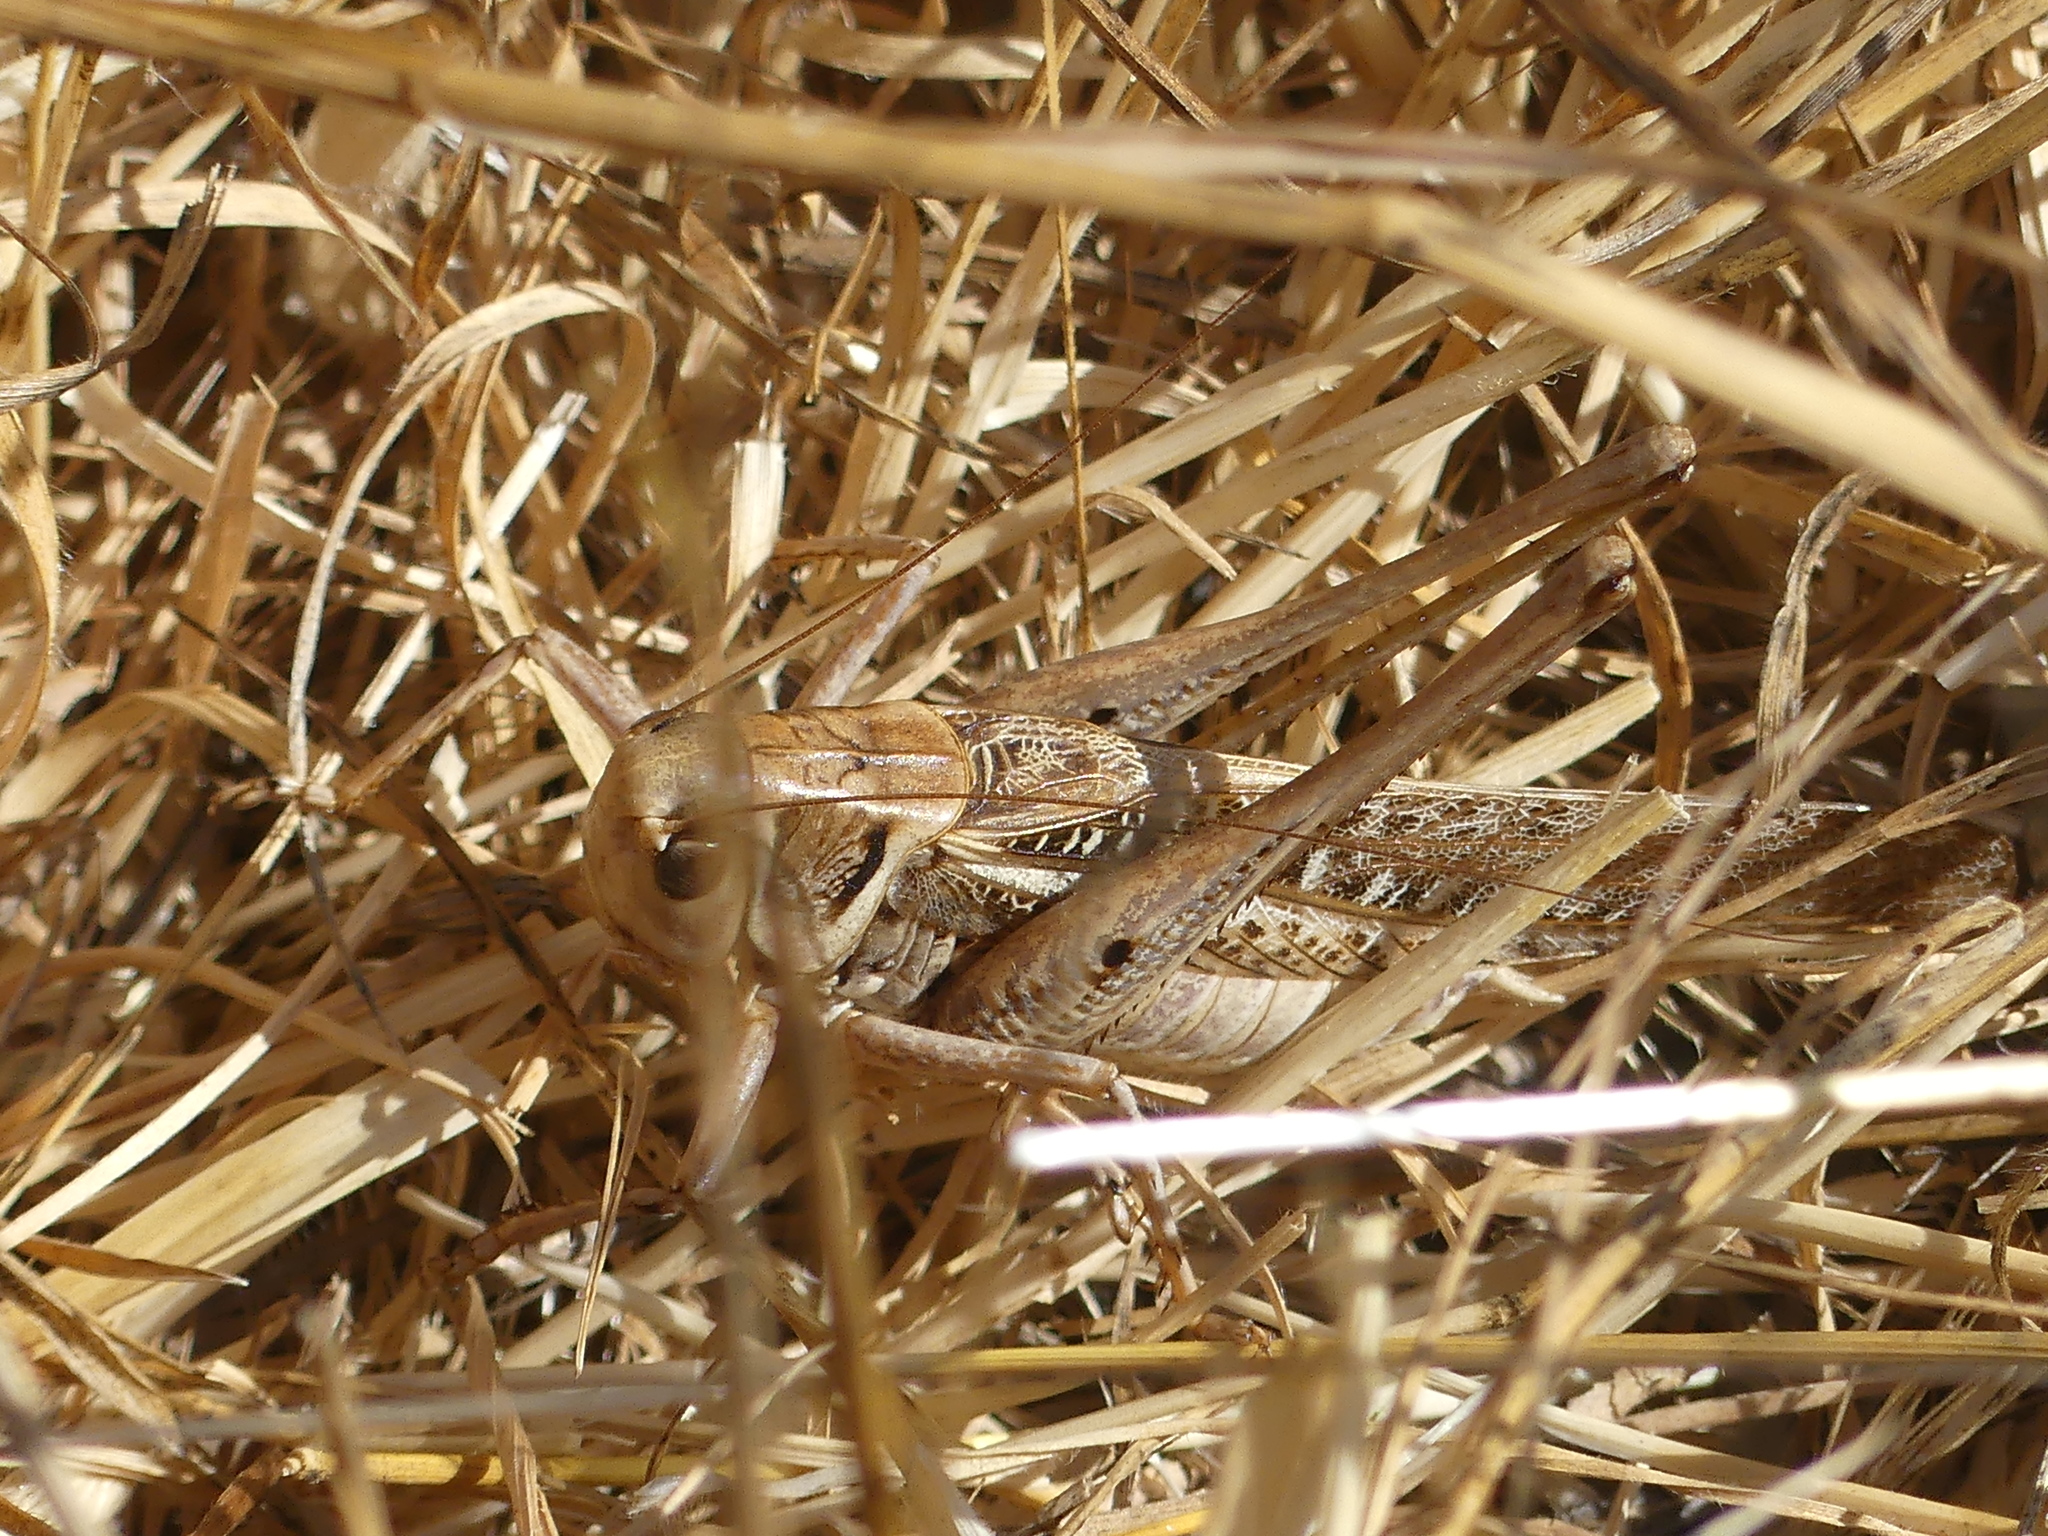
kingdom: Animalia
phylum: Arthropoda
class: Insecta
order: Orthoptera
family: Tettigoniidae
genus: Decticus
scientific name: Decticus albifrons
